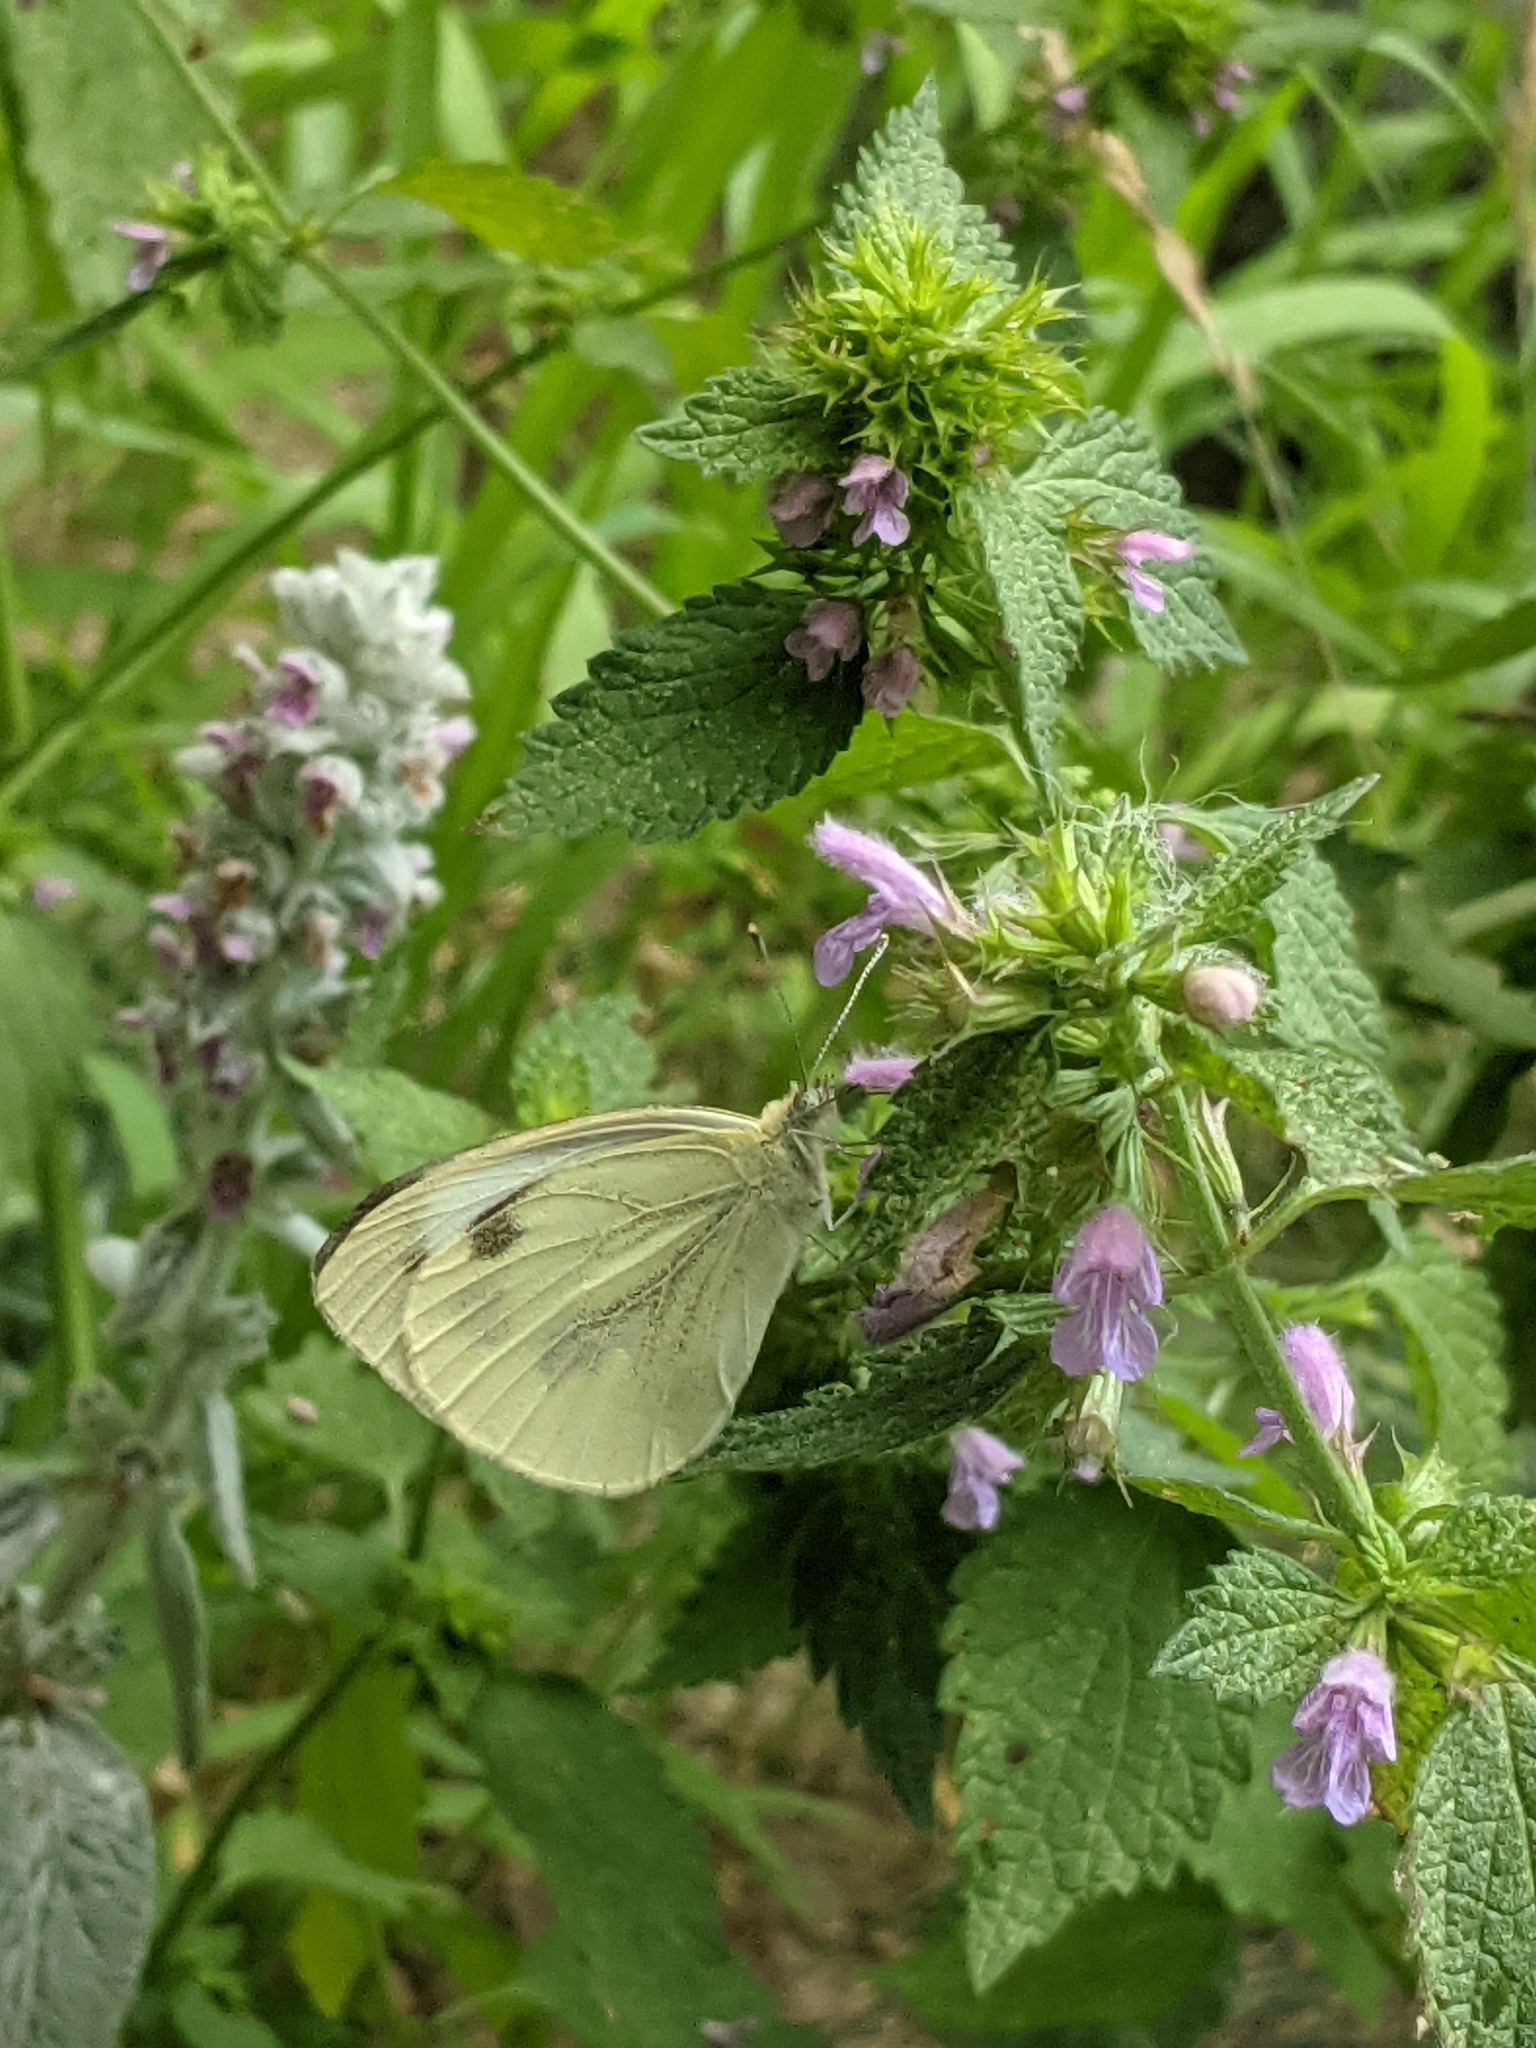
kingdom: Animalia
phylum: Arthropoda
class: Insecta
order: Lepidoptera
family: Pieridae
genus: Pieris
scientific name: Pieris brassicae
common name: Large white
